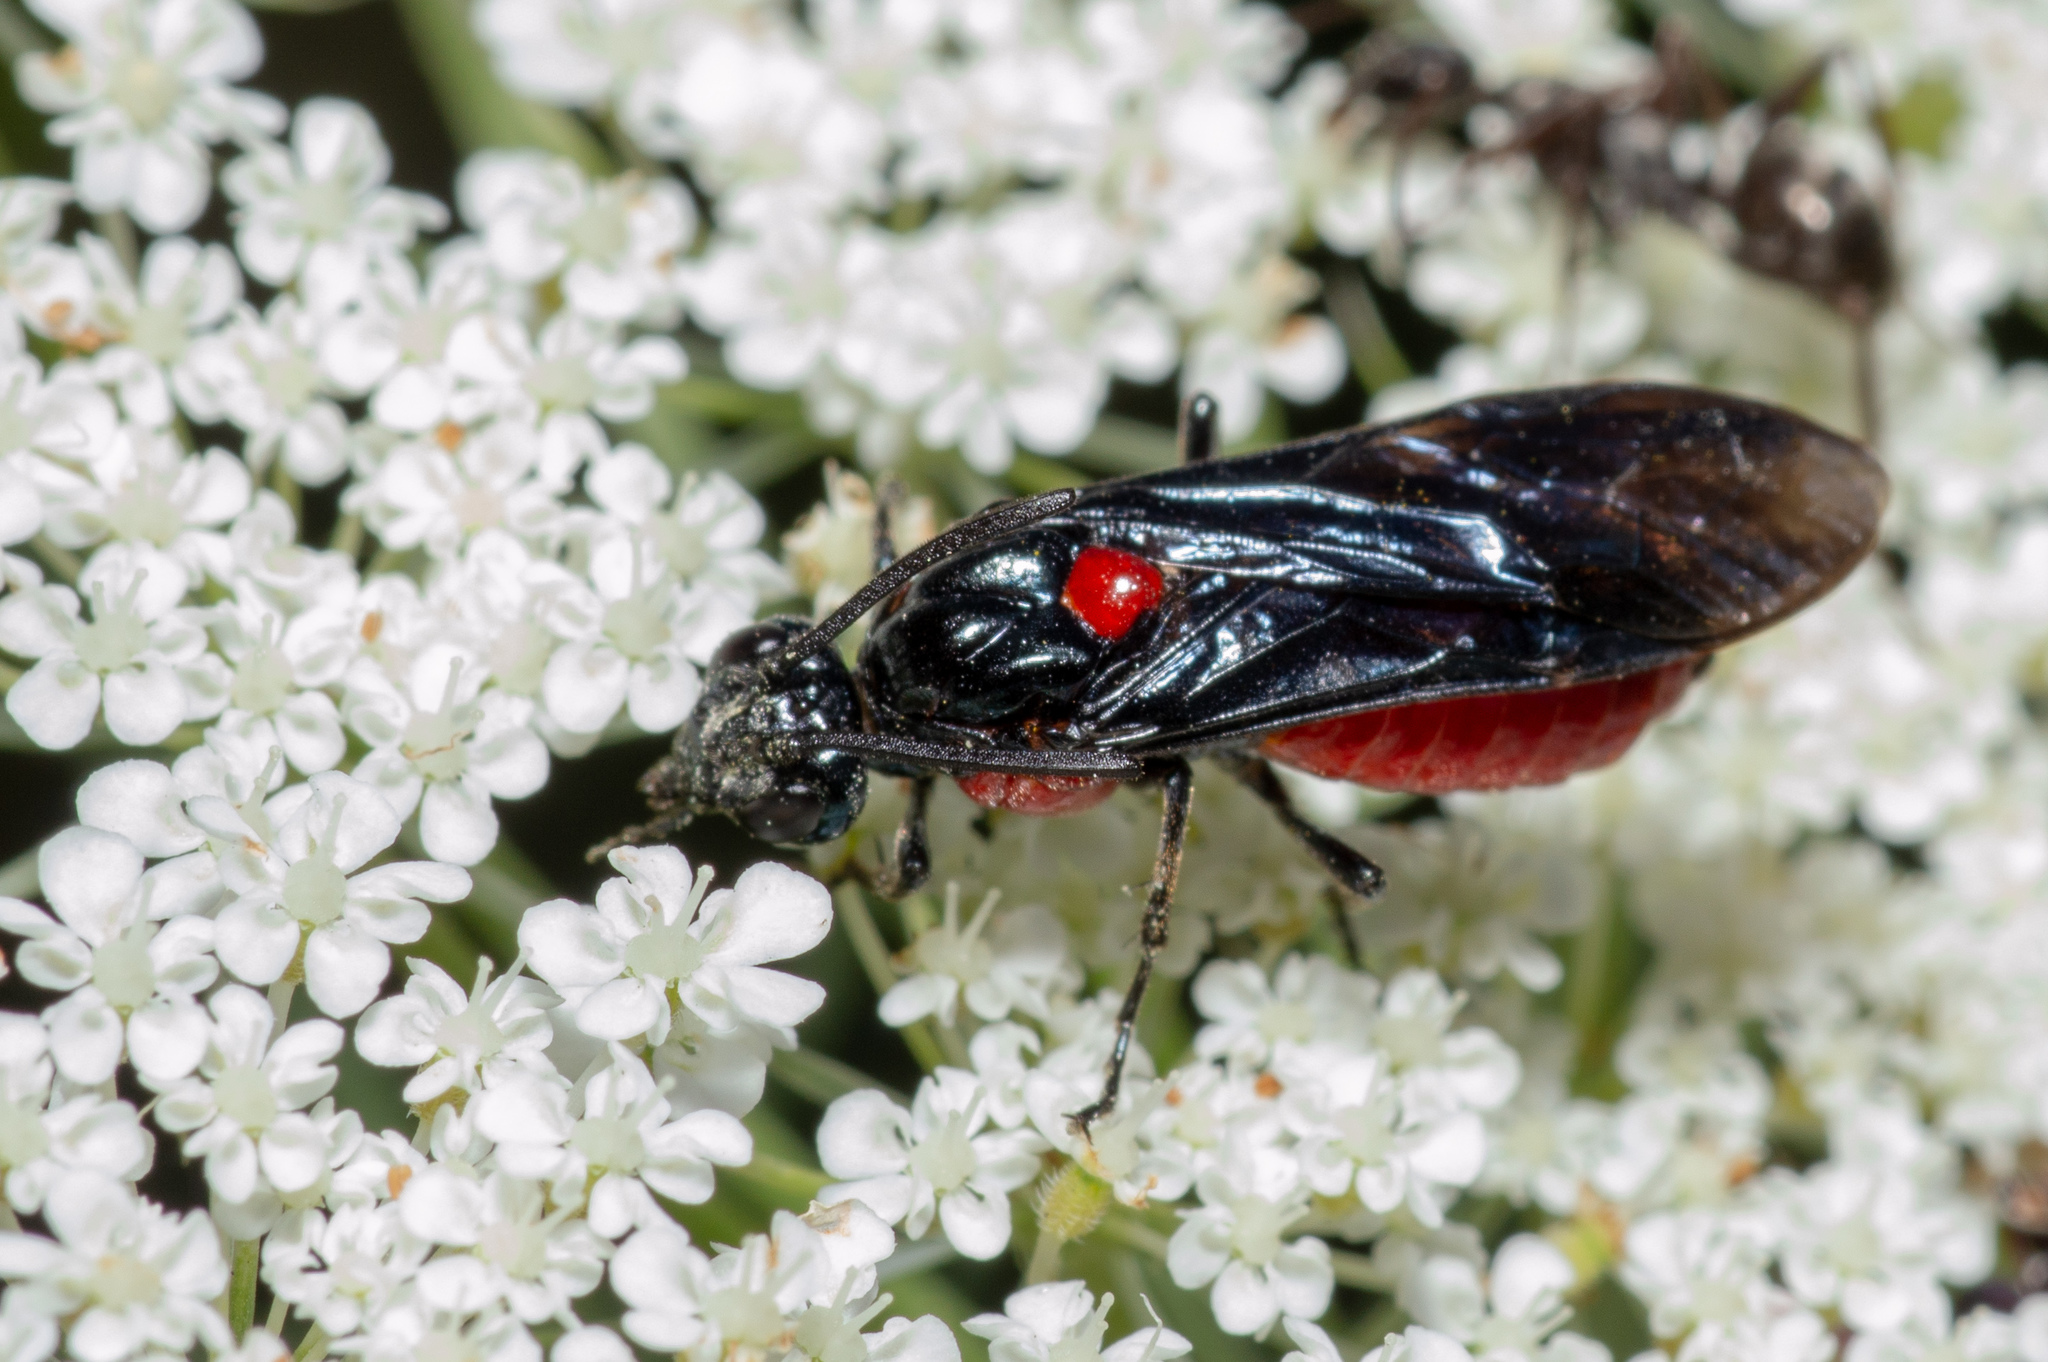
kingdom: Animalia
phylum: Arthropoda
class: Insecta
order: Hymenoptera
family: Argidae
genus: Arge
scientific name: Arge humeralis
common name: Poison ivy sawfly
